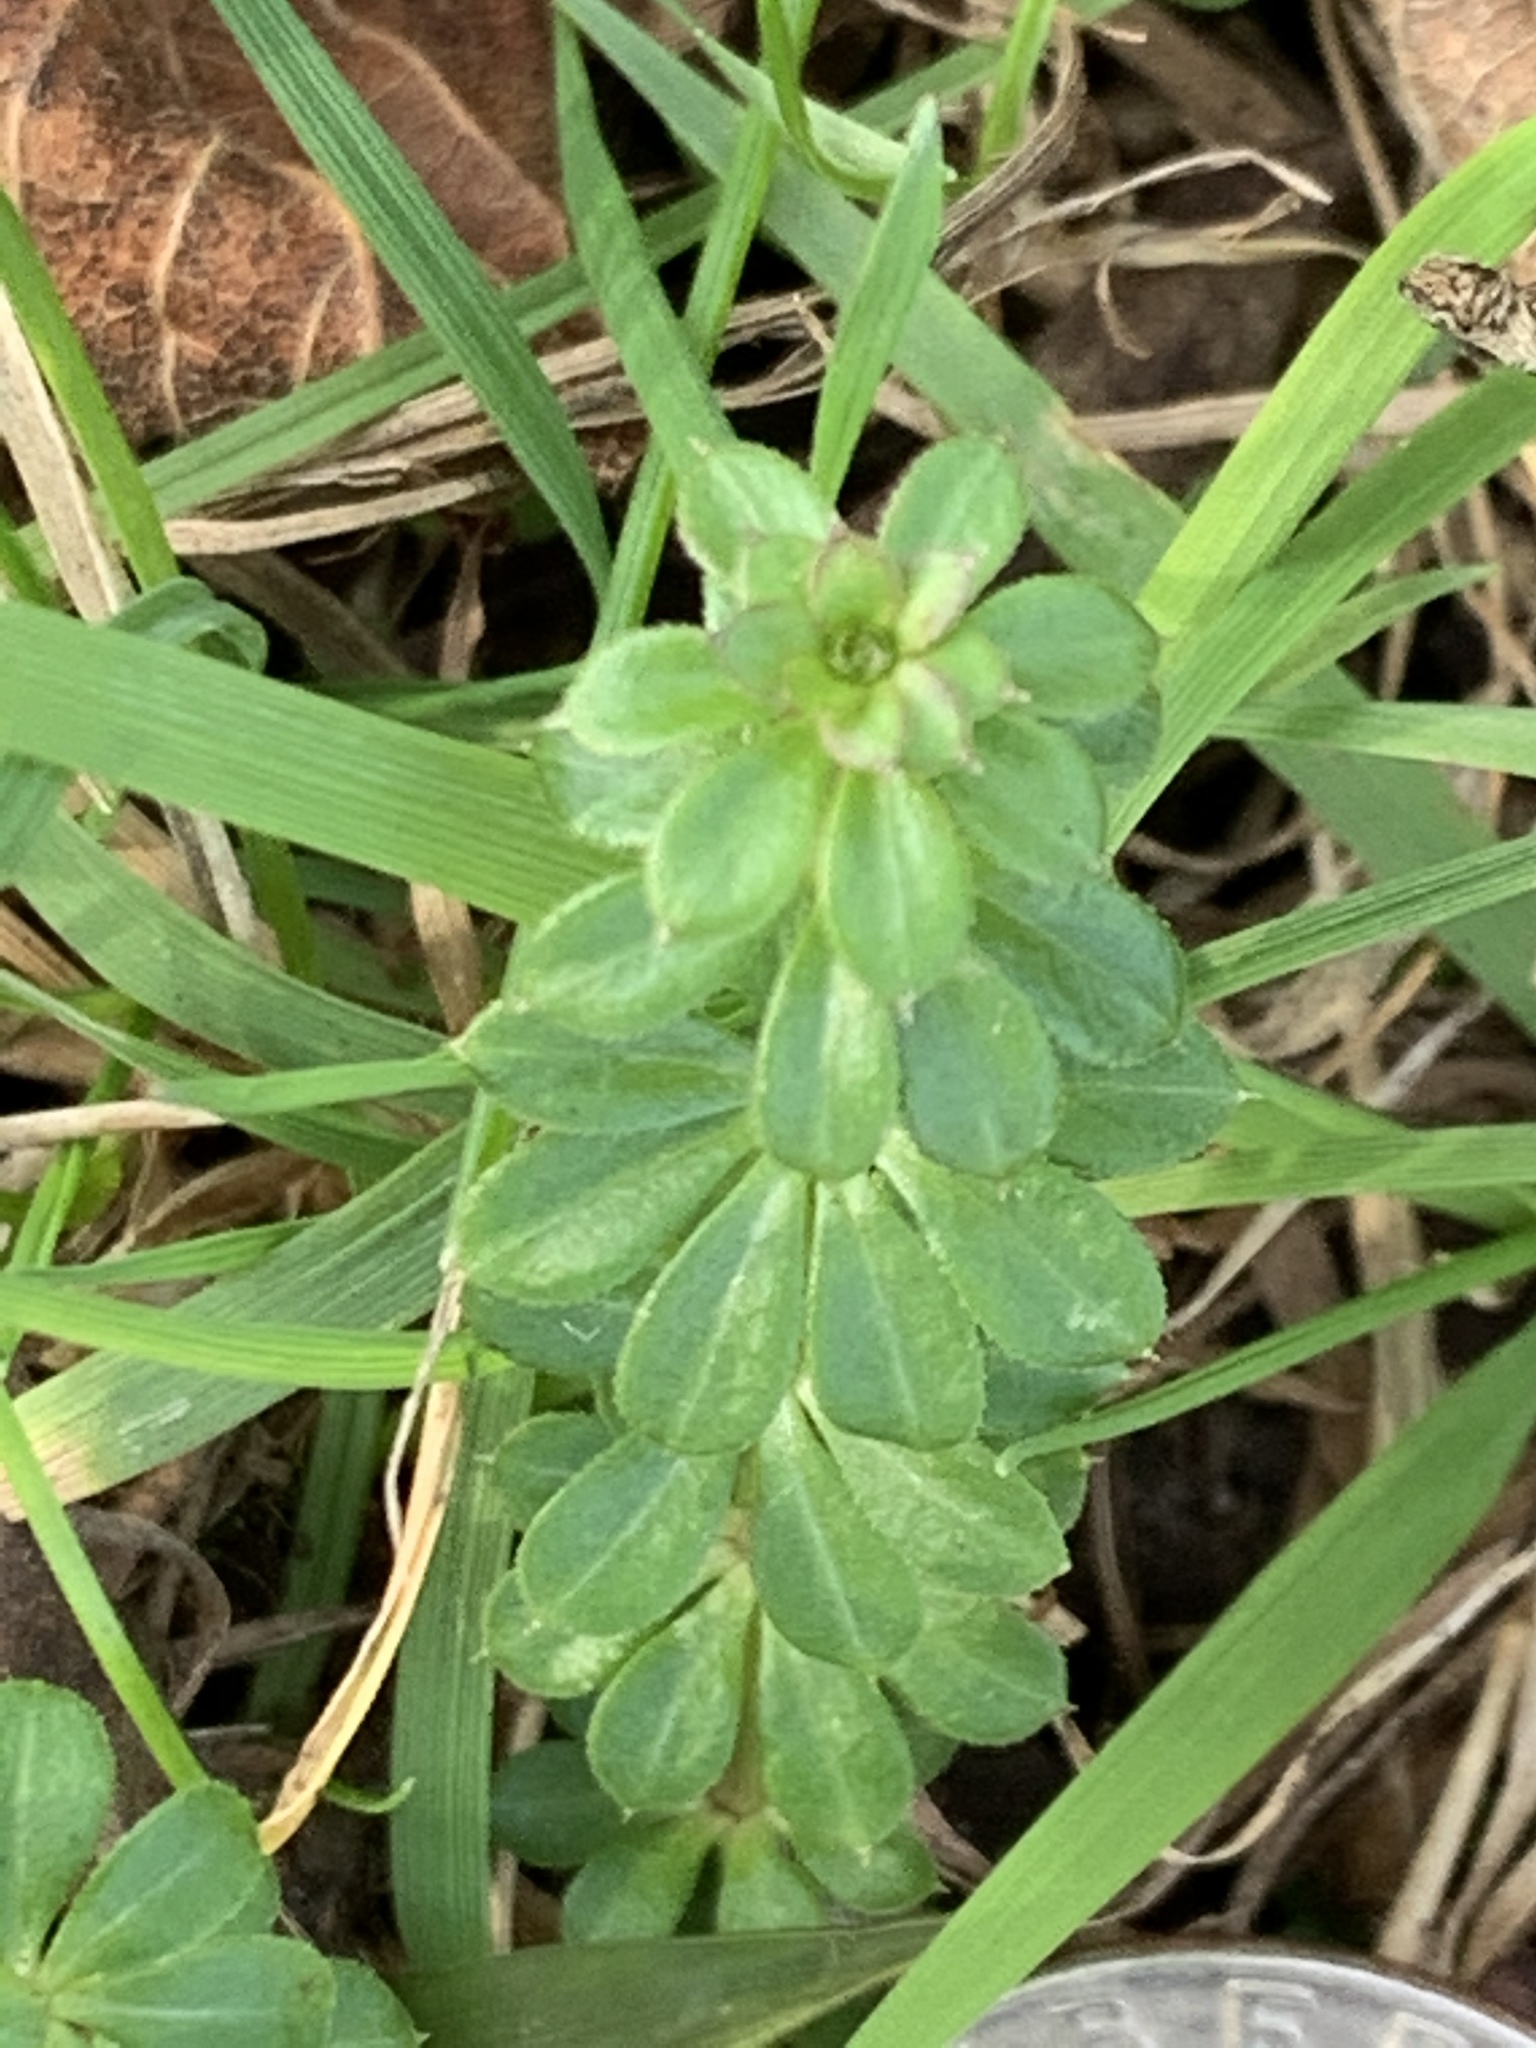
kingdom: Plantae
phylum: Tracheophyta
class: Magnoliopsida
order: Gentianales
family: Rubiaceae
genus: Galium
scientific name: Galium mollugo
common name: Hedge bedstraw
